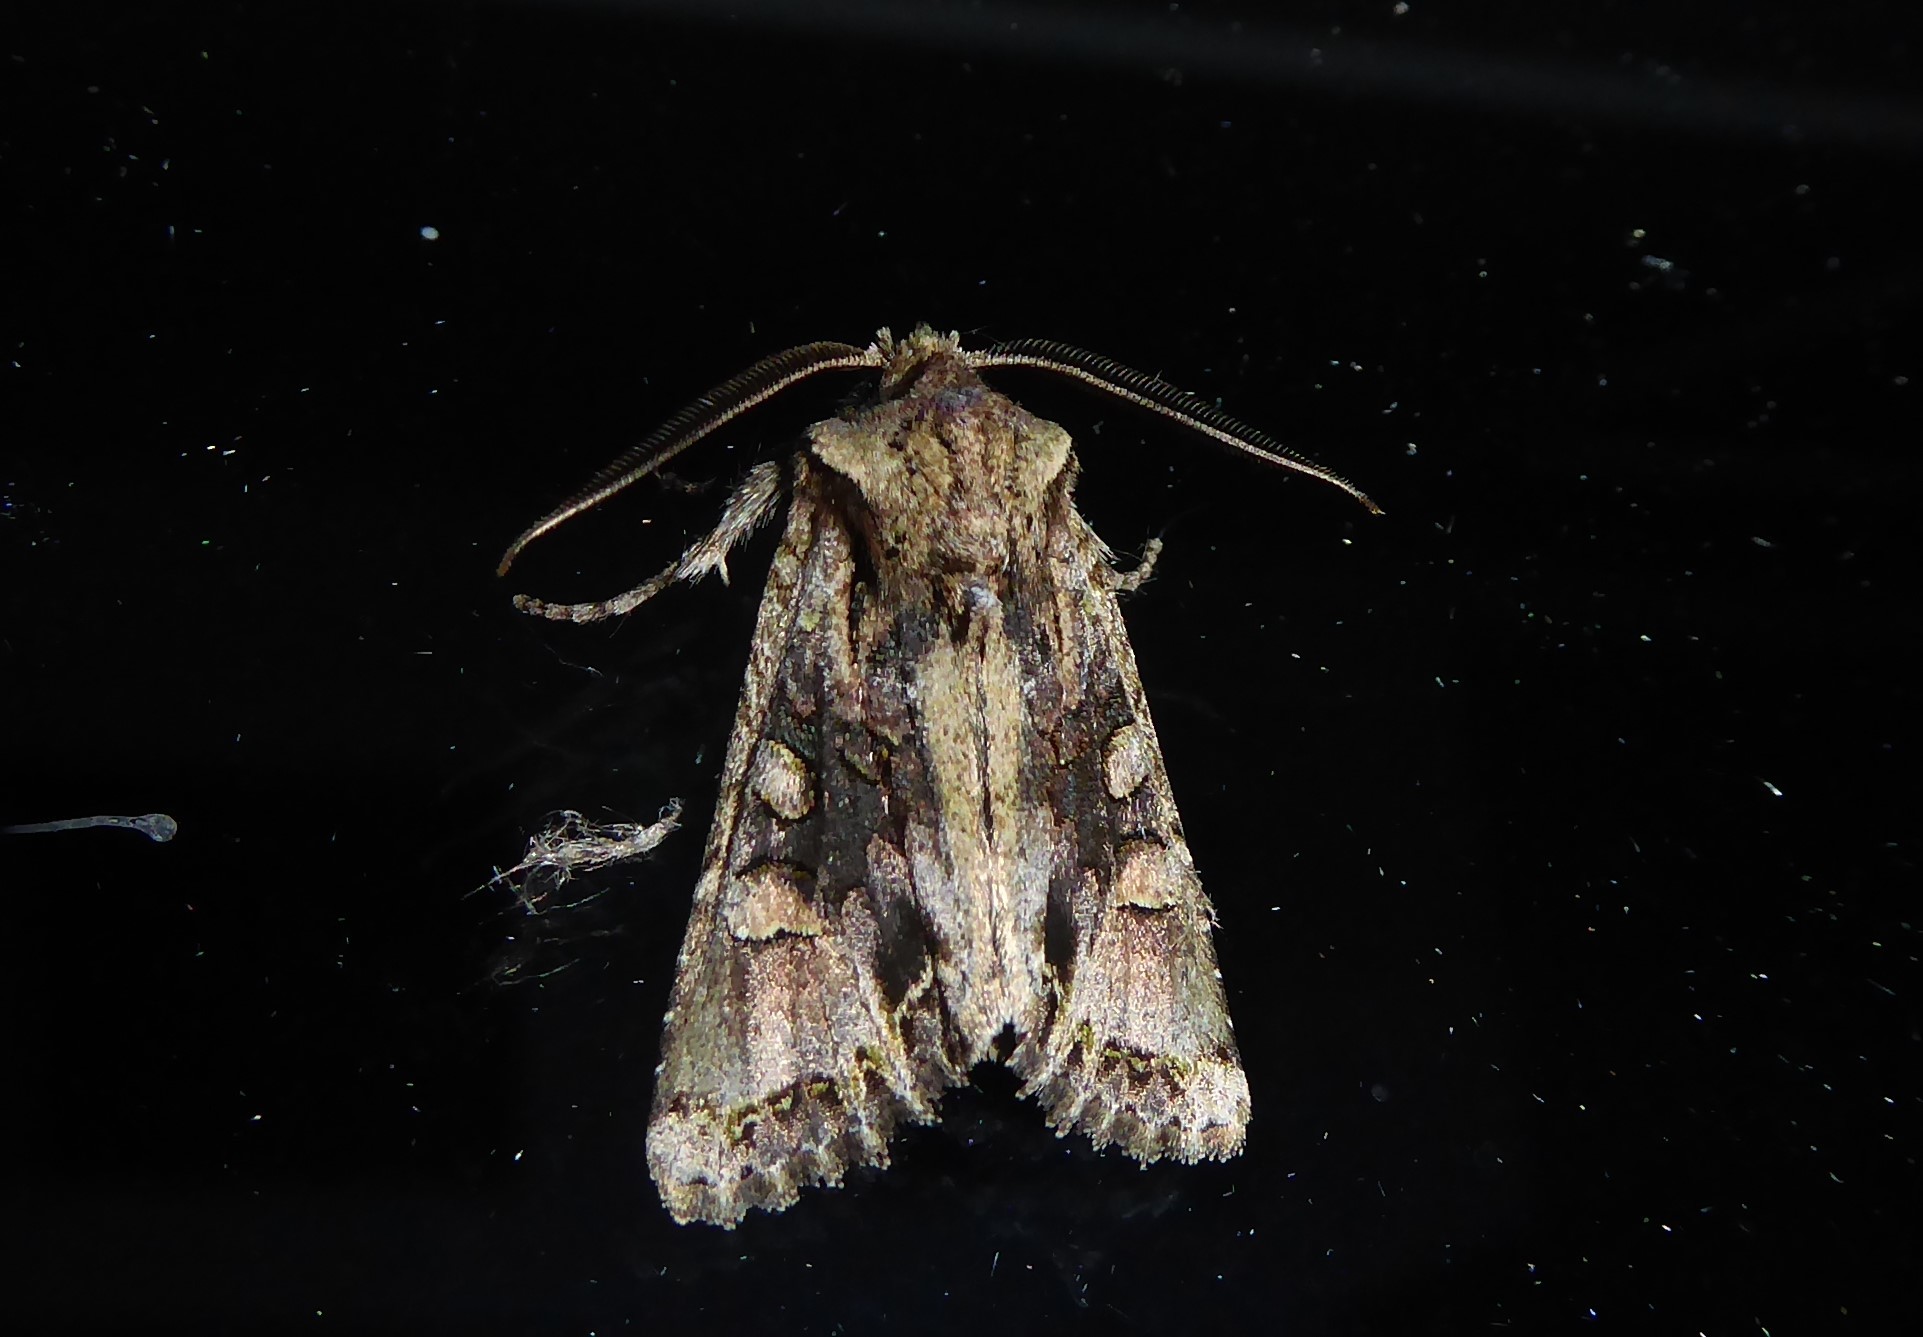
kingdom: Animalia
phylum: Arthropoda
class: Insecta
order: Lepidoptera
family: Noctuidae
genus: Ichneutica
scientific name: Ichneutica
